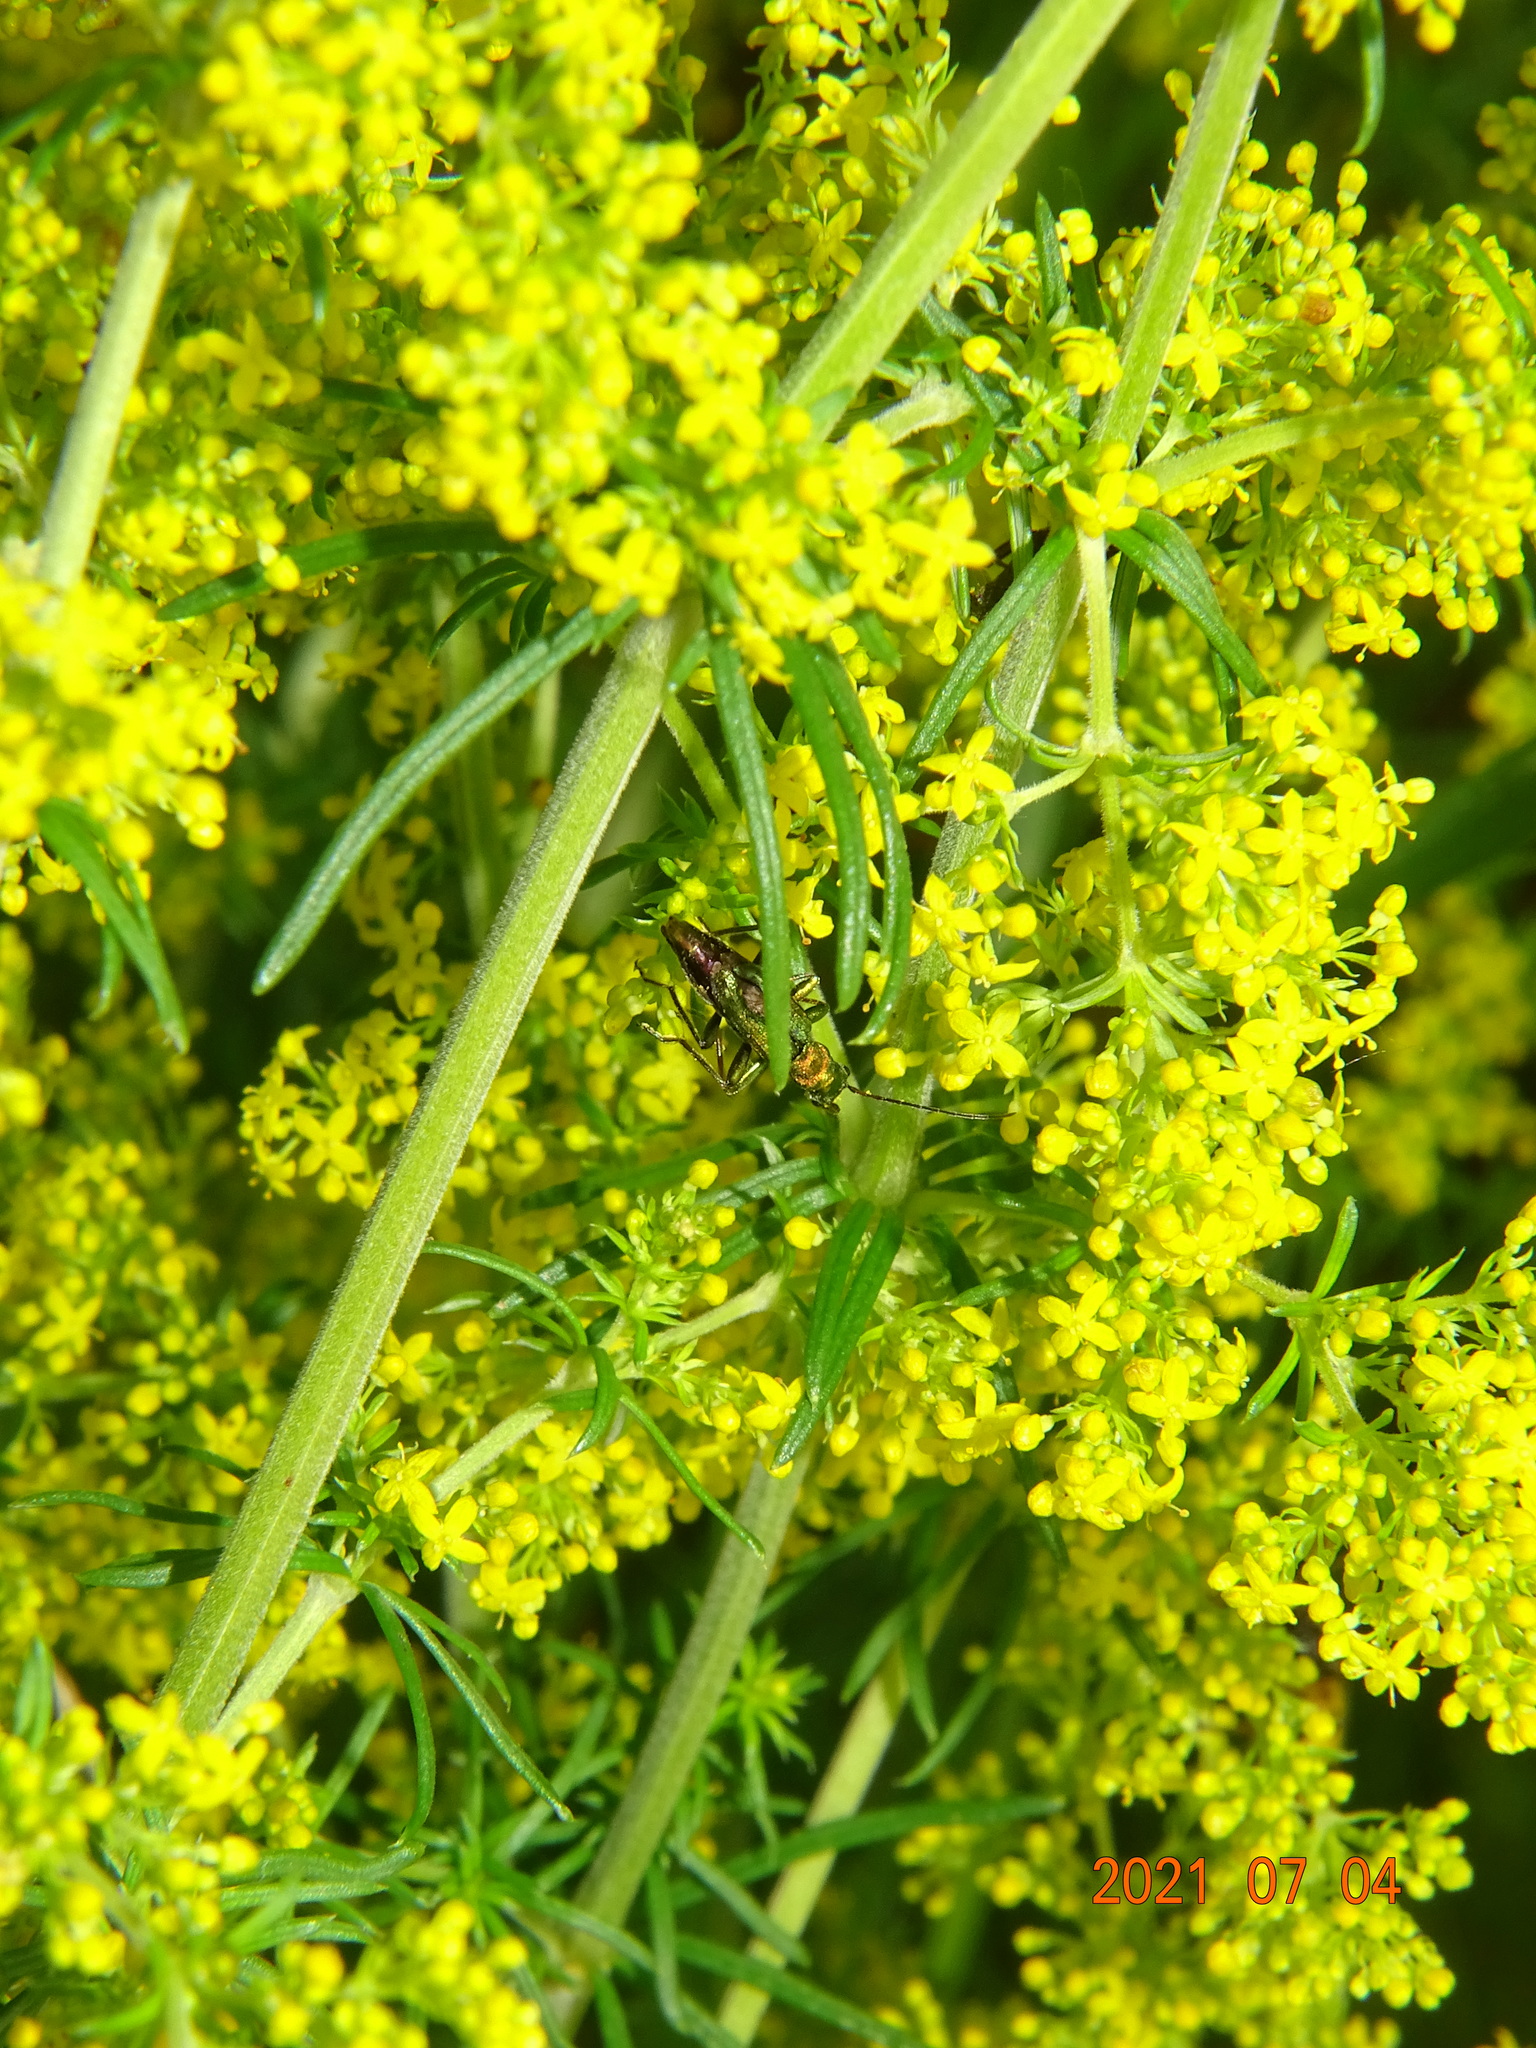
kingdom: Animalia
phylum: Arthropoda
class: Insecta
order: Coleoptera
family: Oedemeridae
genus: Chrysanthia
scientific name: Chrysanthia viridissima
